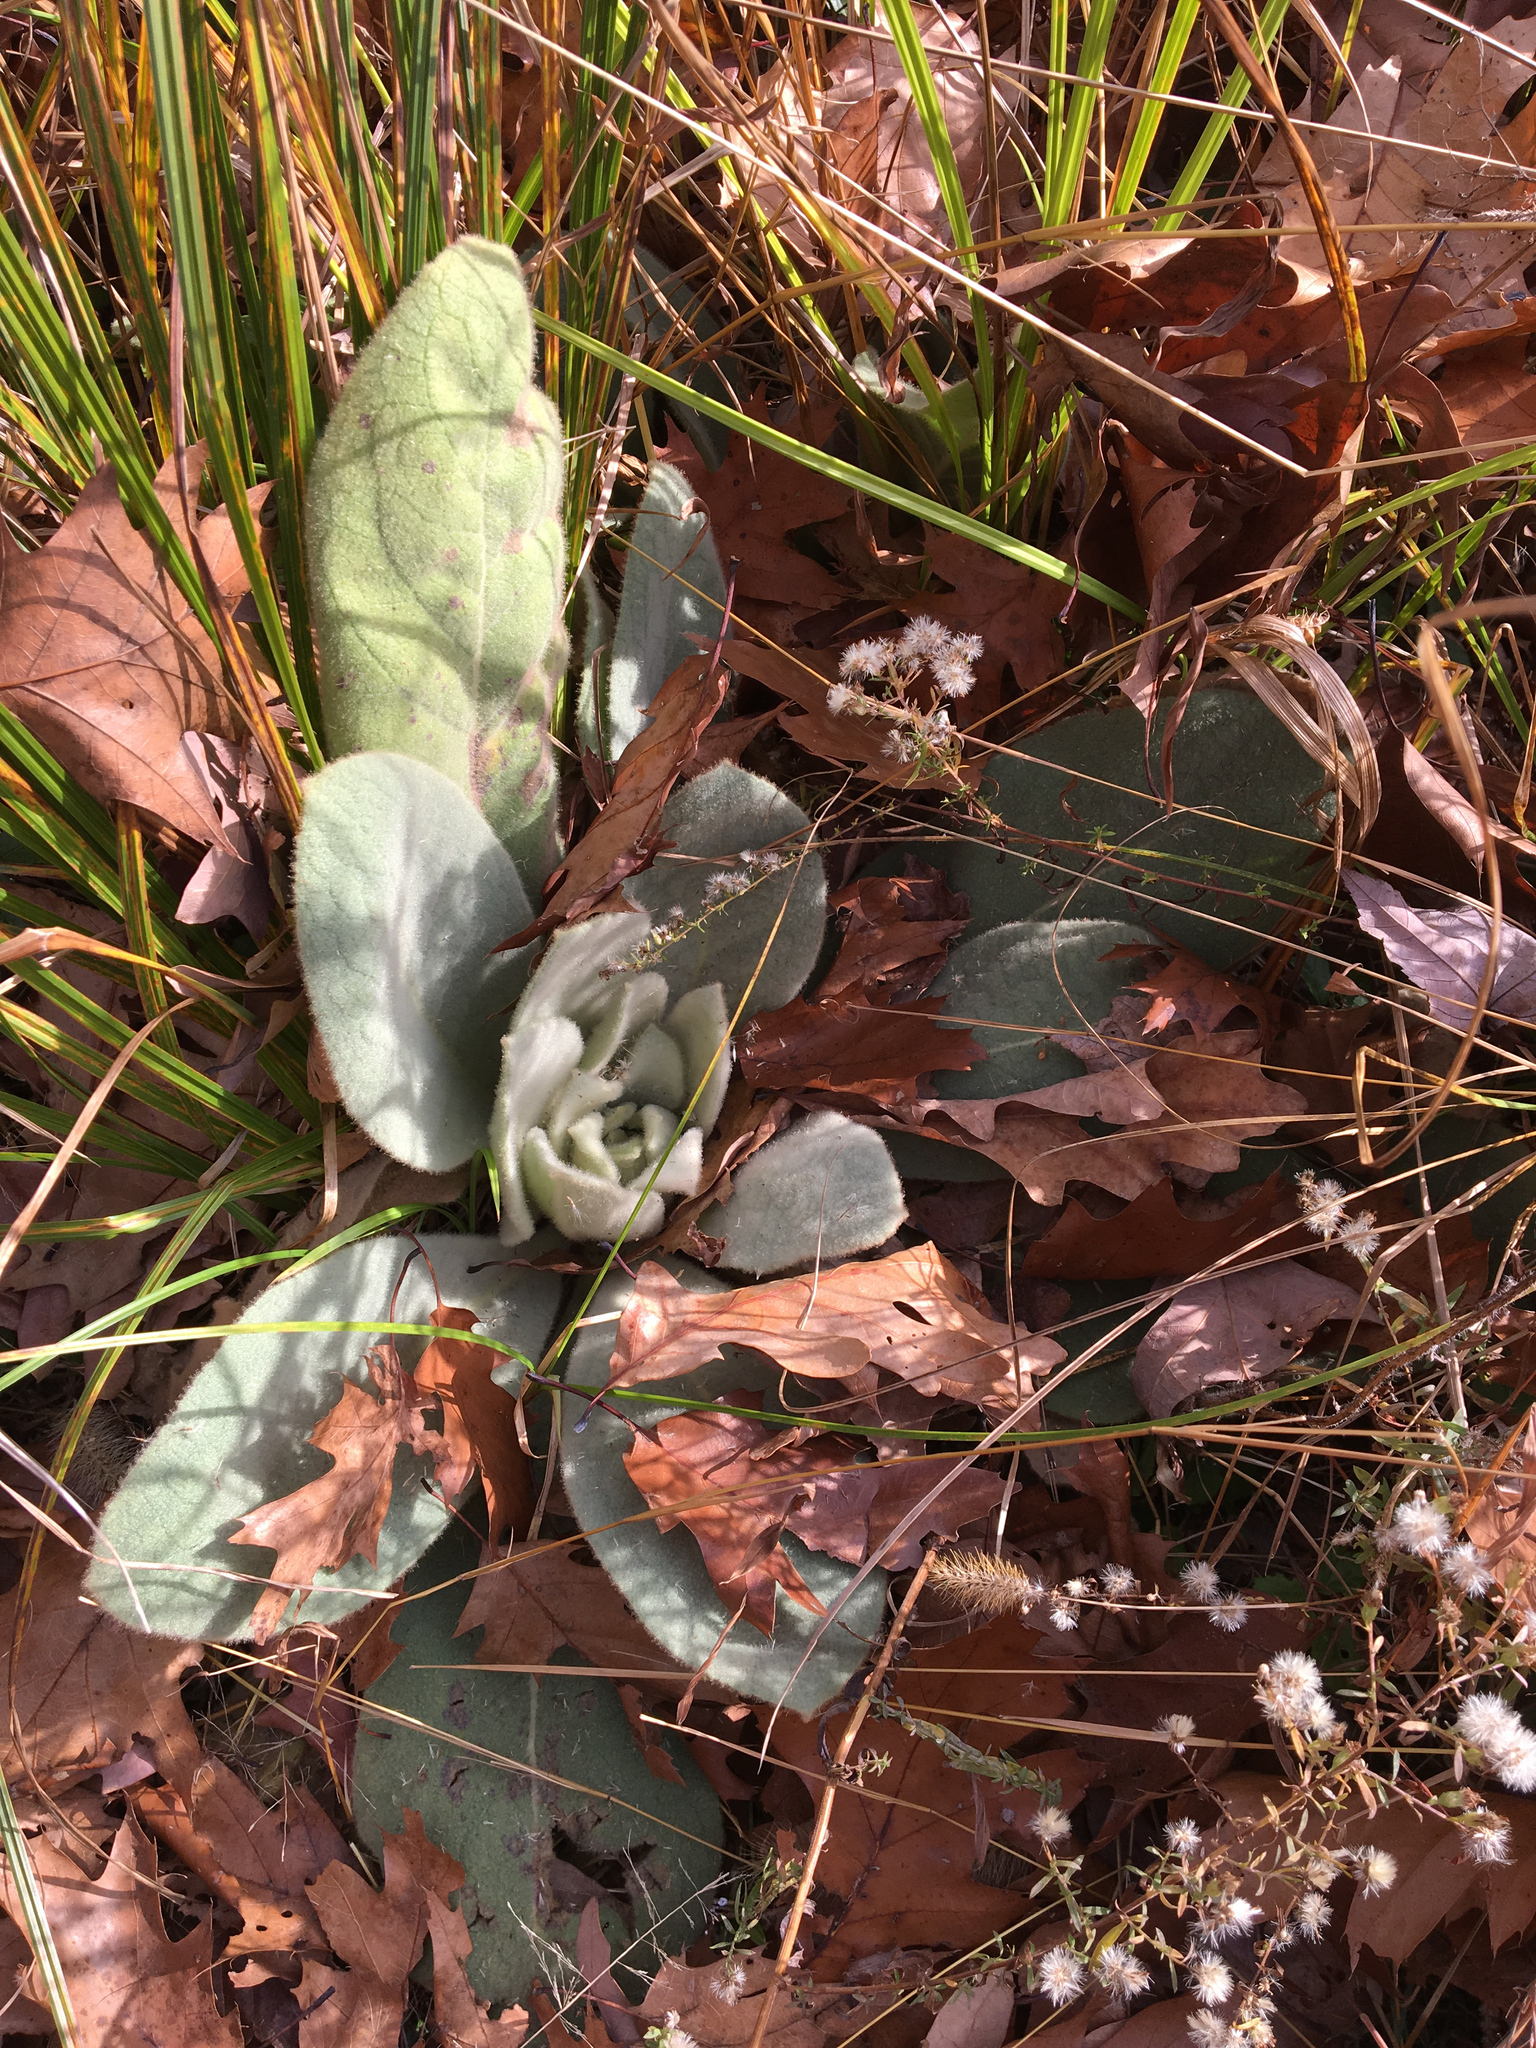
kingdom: Plantae
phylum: Tracheophyta
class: Magnoliopsida
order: Lamiales
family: Scrophulariaceae
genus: Verbascum
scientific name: Verbascum thapsus
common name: Common mullein
